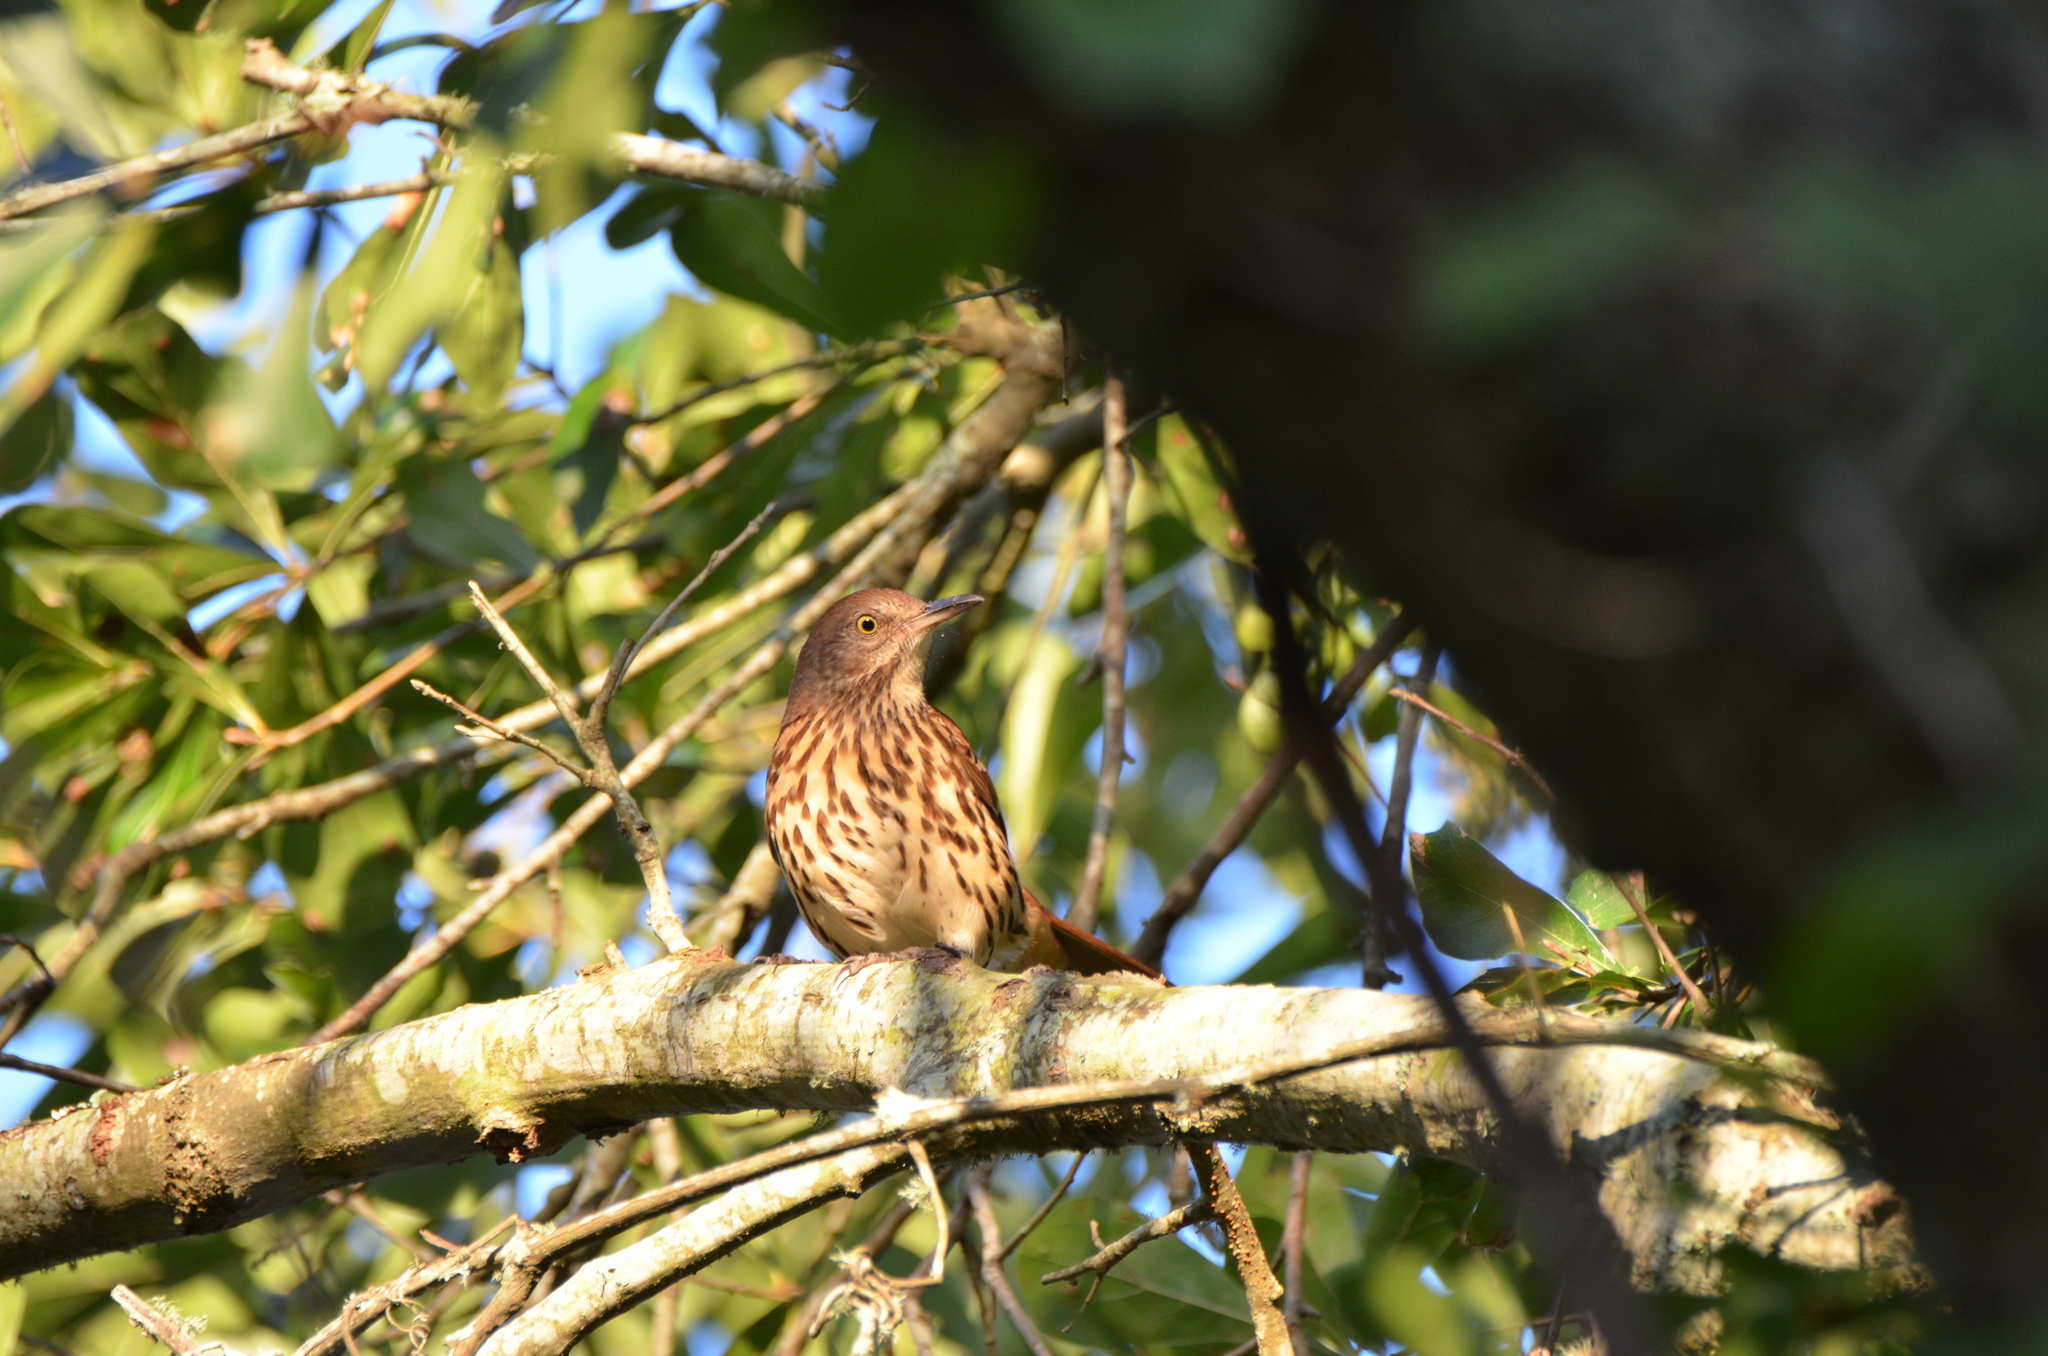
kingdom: Animalia
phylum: Chordata
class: Aves
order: Passeriformes
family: Mimidae
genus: Toxostoma
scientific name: Toxostoma rufum
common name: Brown thrasher
